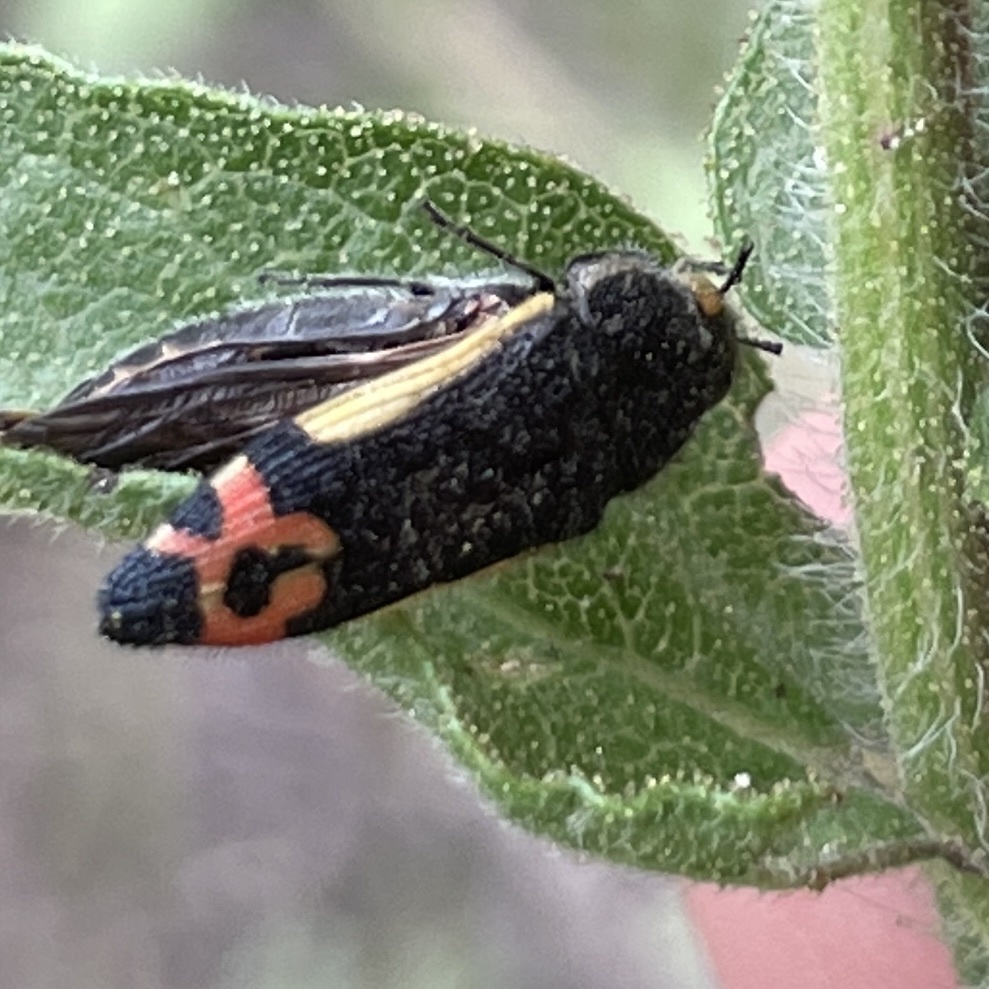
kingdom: Animalia
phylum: Arthropoda
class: Insecta
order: Coleoptera
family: Buprestidae
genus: Acmaeodera
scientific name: Acmaeodera flavomarginata
